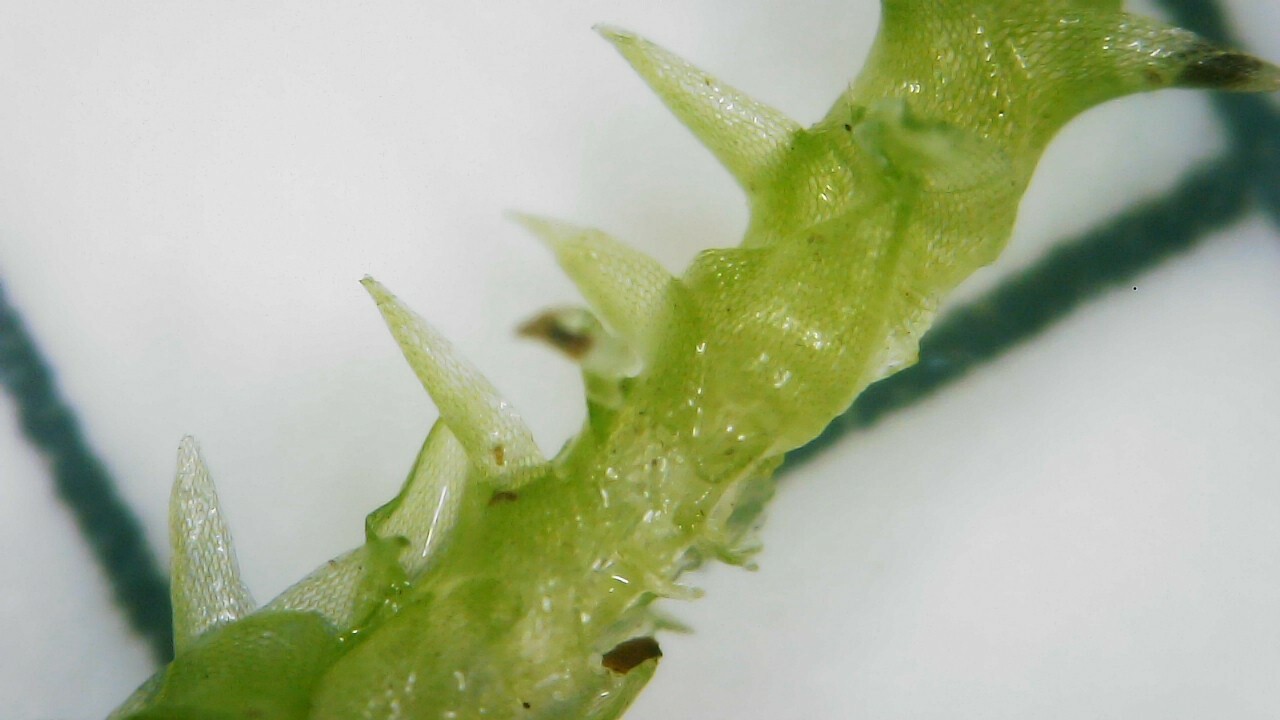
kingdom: Plantae
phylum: Bryophyta
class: Sphagnopsida
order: Sphagnales
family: Sphagnaceae
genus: Sphagnum
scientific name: Sphagnum squarrosum
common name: Shaggy peat moss
